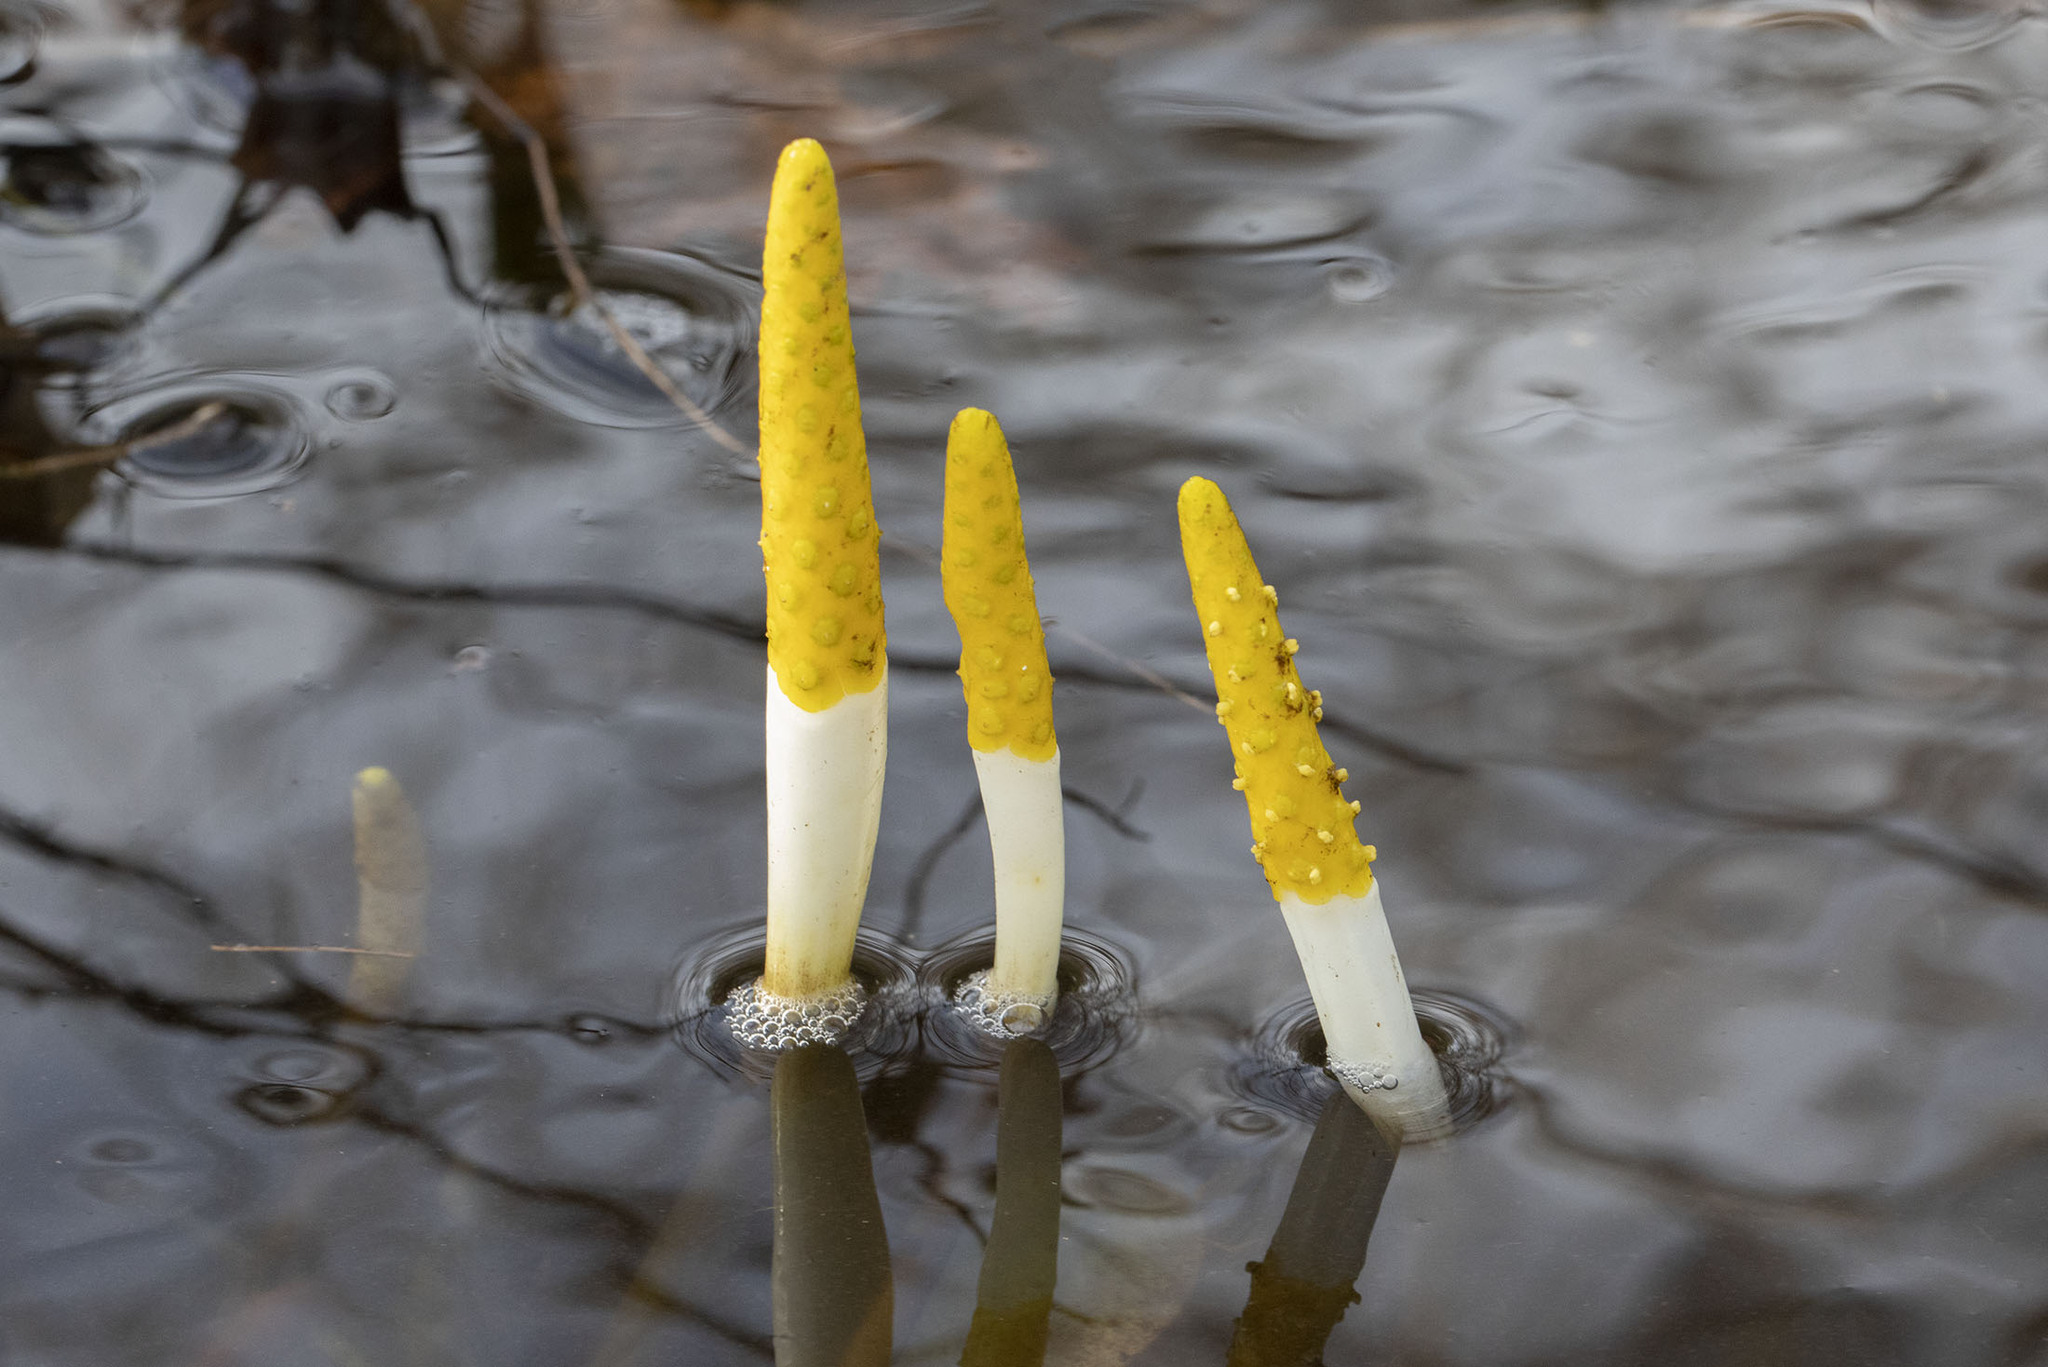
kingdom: Plantae
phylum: Tracheophyta
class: Liliopsida
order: Alismatales
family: Araceae
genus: Orontium
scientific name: Orontium aquaticum
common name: Golden-club
